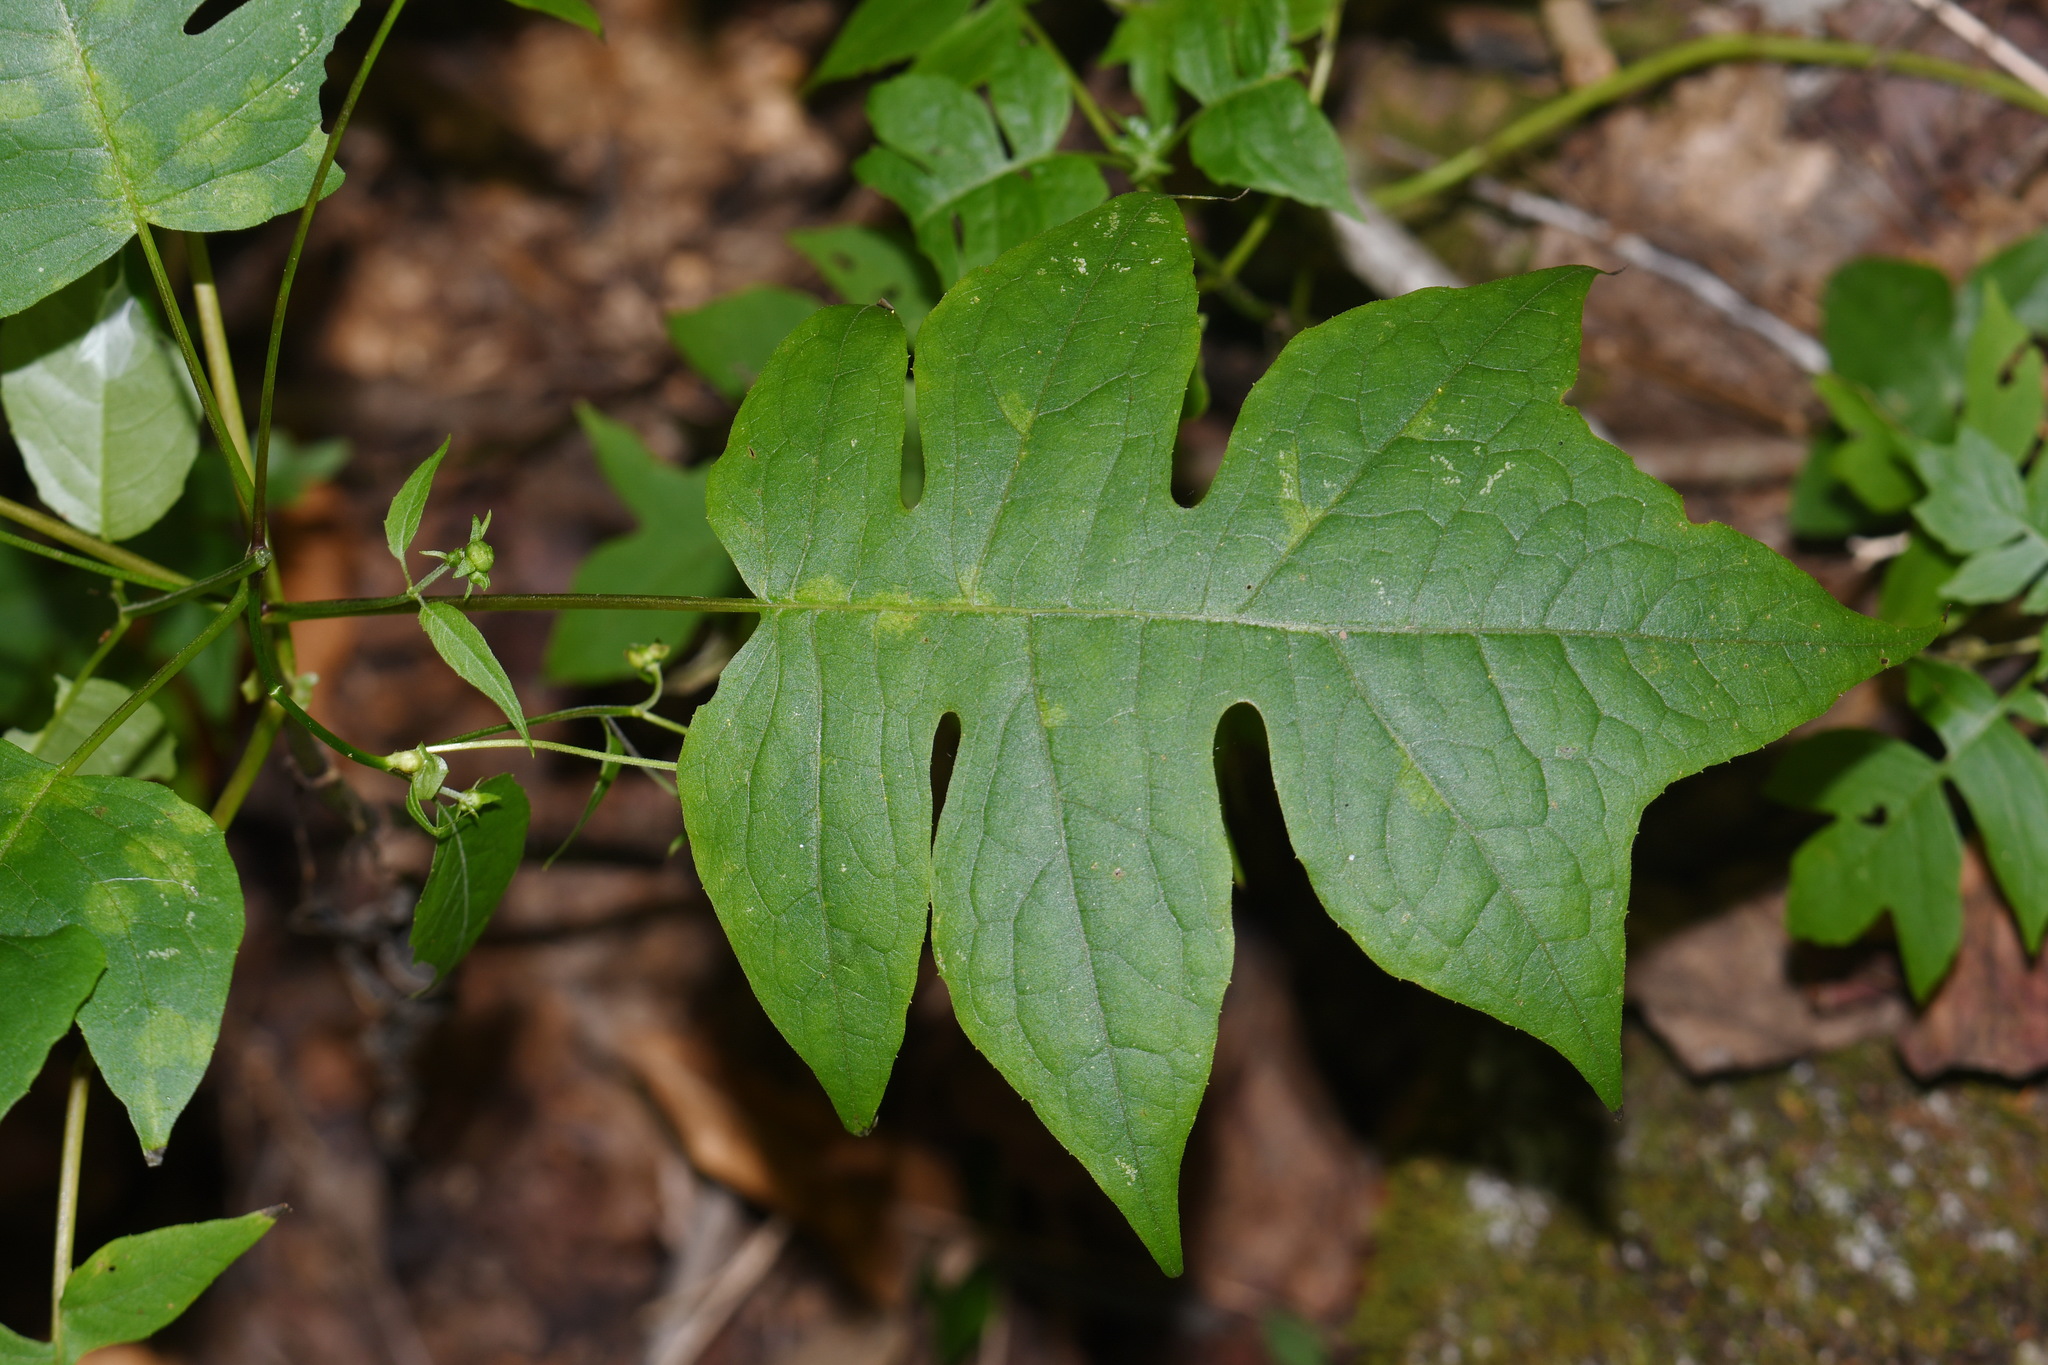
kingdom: Plantae
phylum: Tracheophyta
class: Magnoliopsida
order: Asterales
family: Asteraceae
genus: Polymnia
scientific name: Polymnia laevigata
